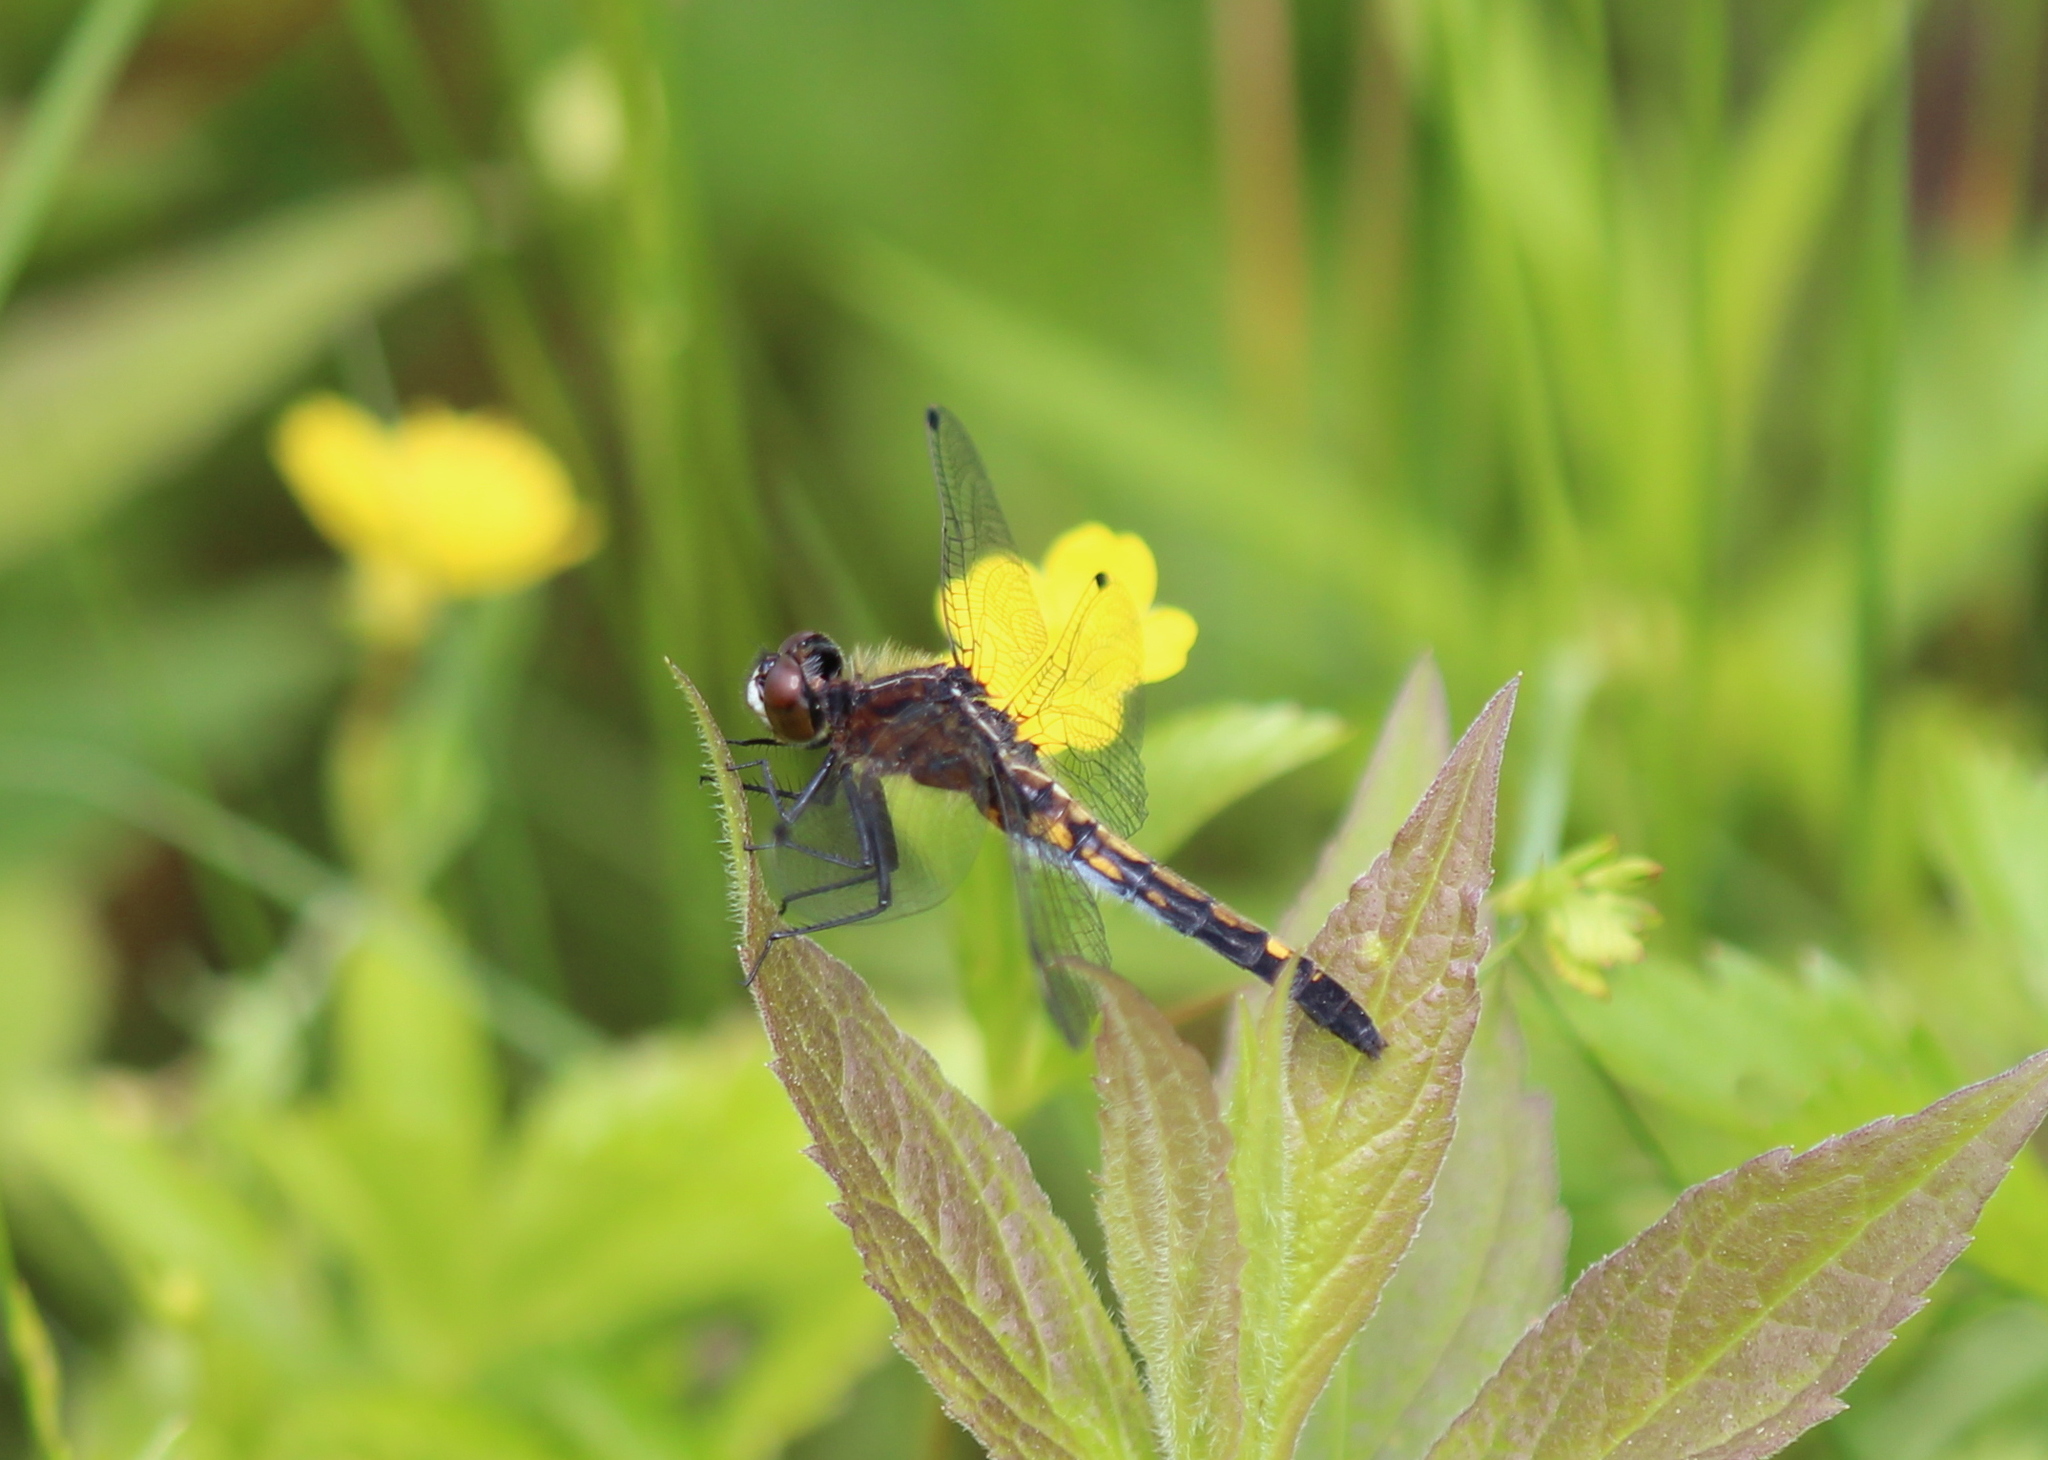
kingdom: Animalia
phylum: Arthropoda
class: Insecta
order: Odonata
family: Libellulidae
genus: Leucorrhinia
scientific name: Leucorrhinia intacta
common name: Dot-tailed whiteface
